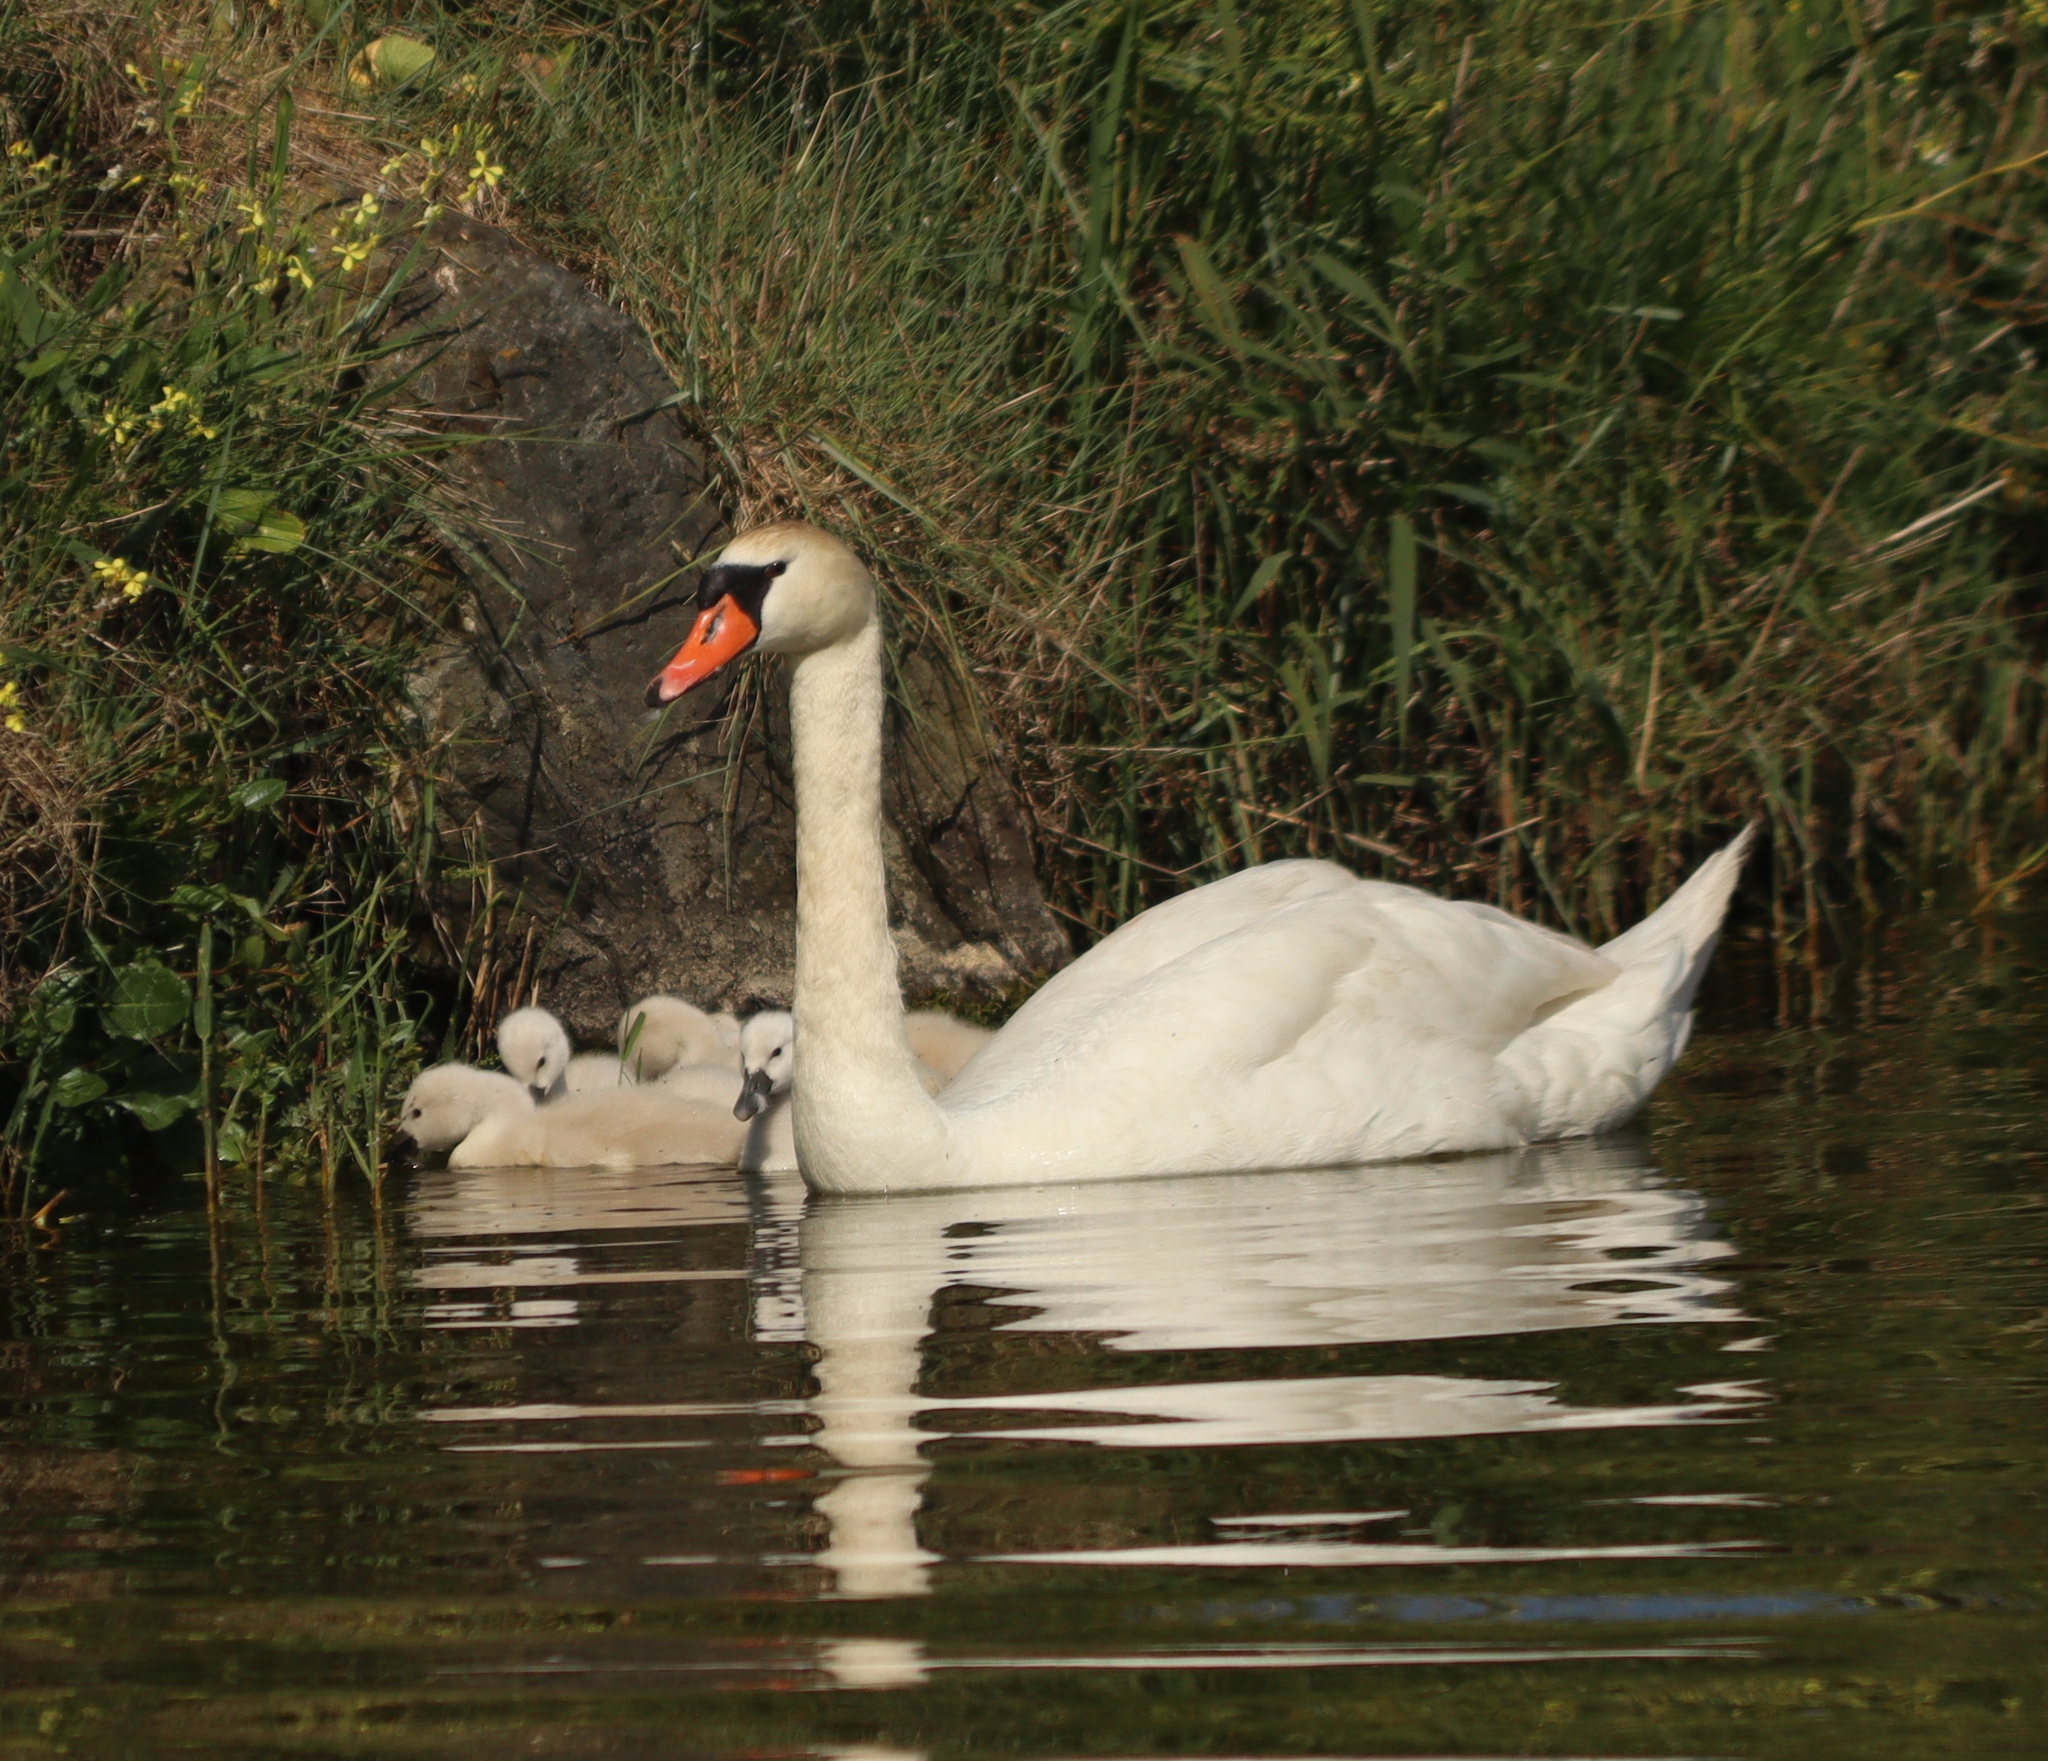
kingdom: Animalia
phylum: Chordata
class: Aves
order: Anseriformes
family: Anatidae
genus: Cygnus
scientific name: Cygnus olor
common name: Mute swan
